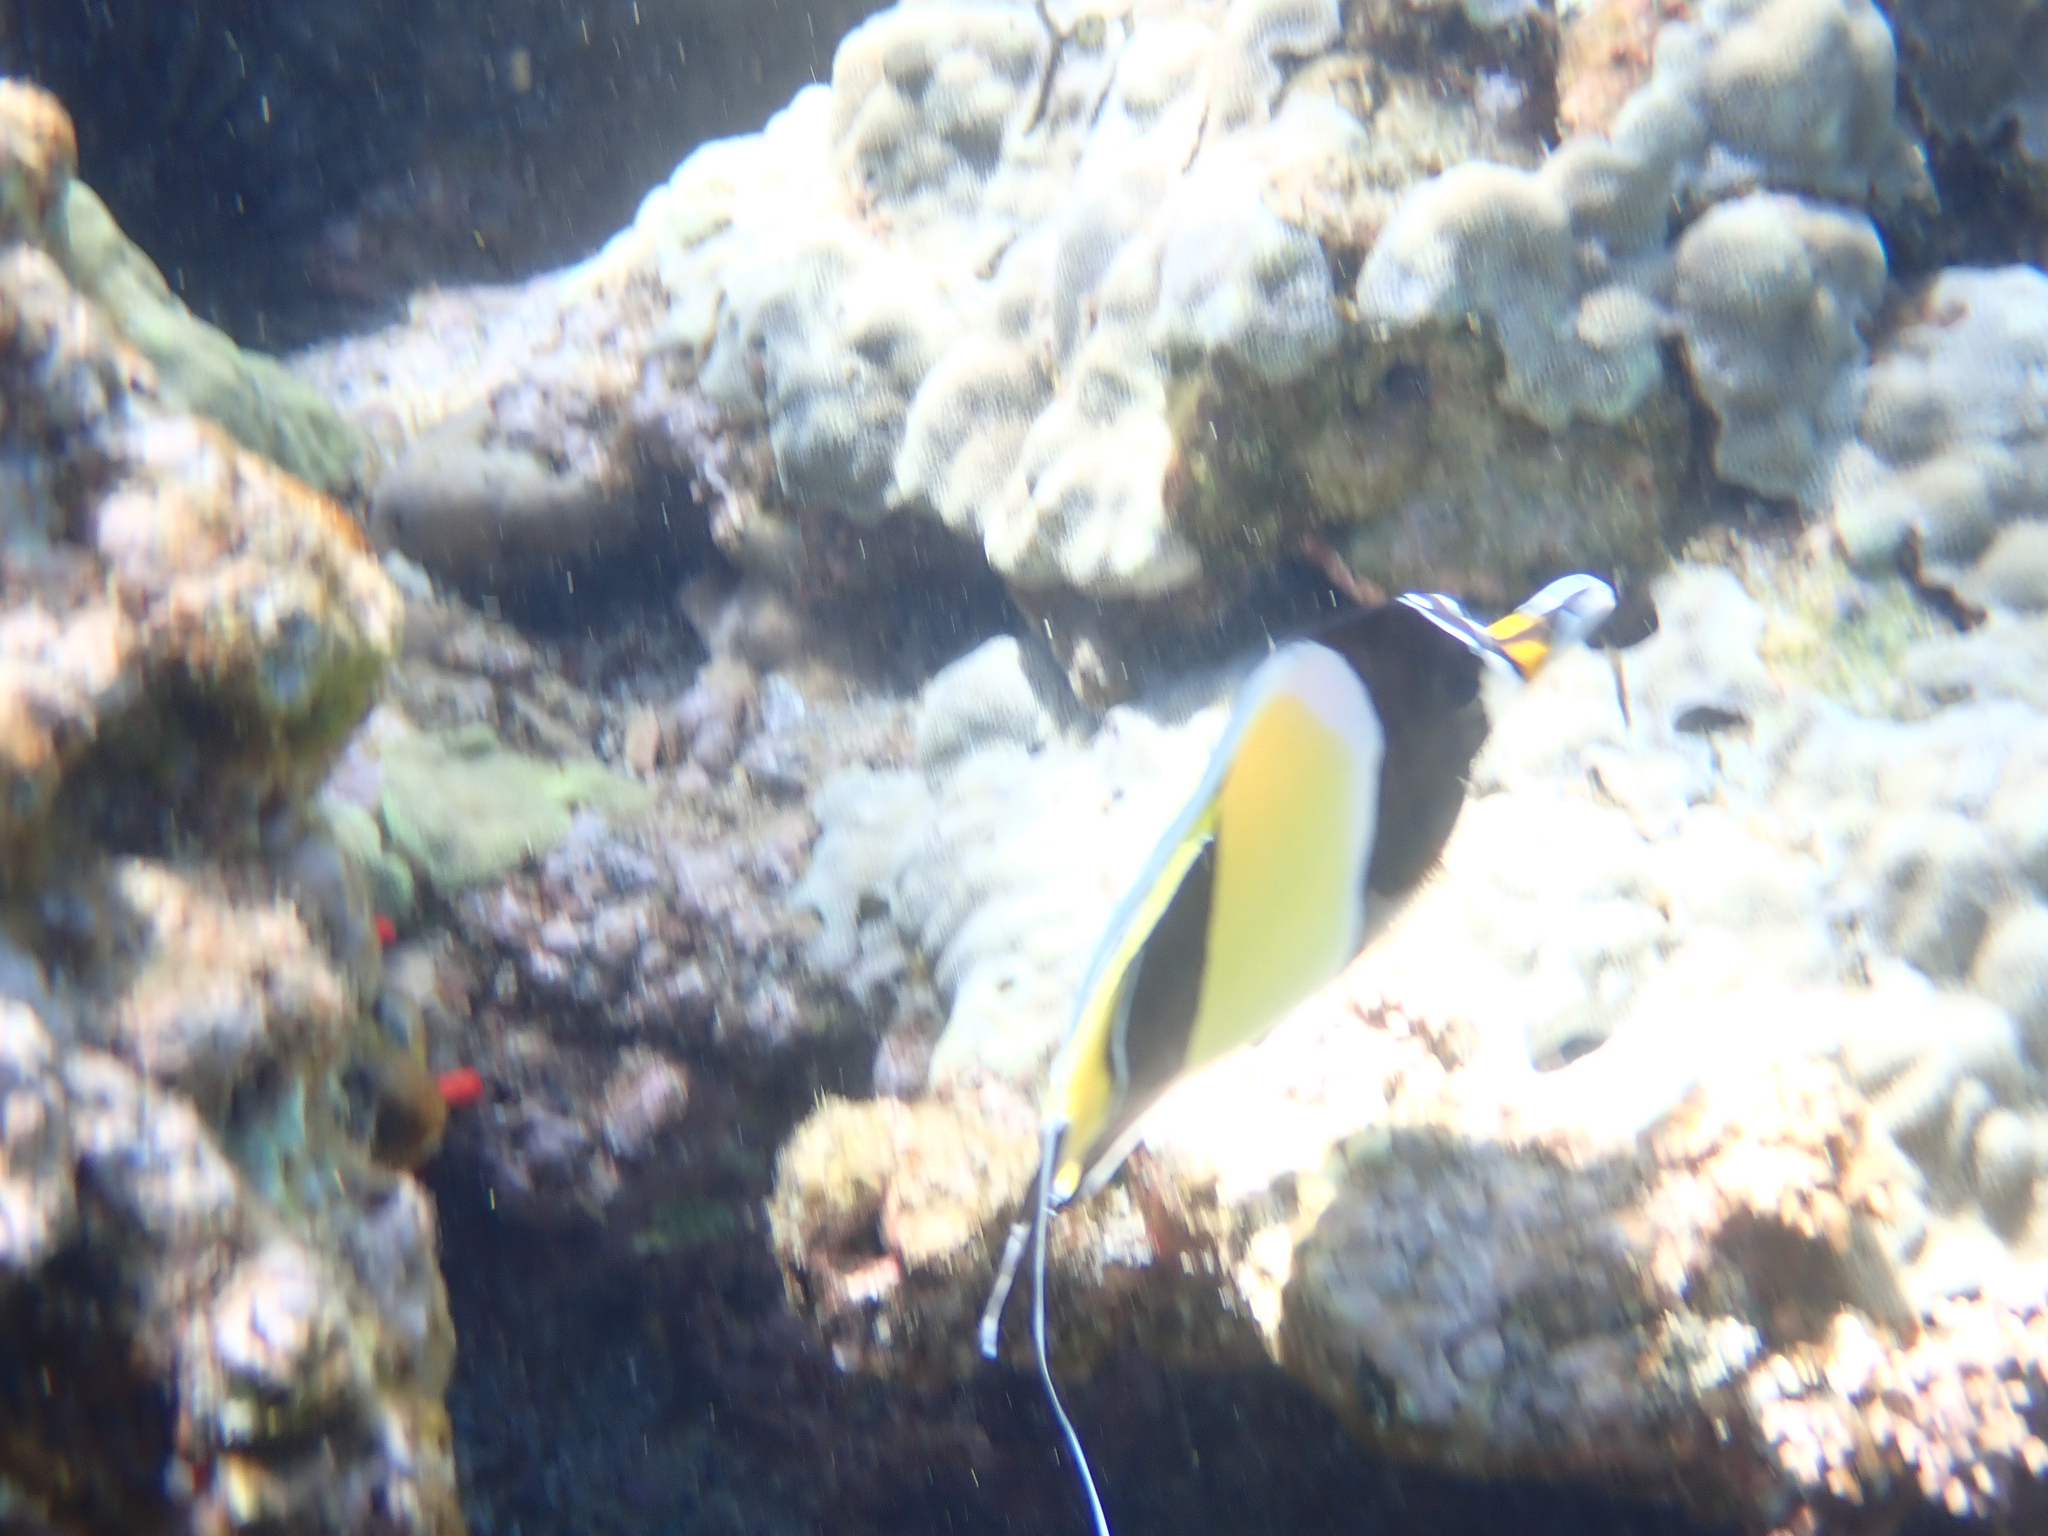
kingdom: Animalia
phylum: Chordata
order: Perciformes
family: Zanclidae
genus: Zanclus
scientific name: Zanclus cornutus
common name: Moorish idol
